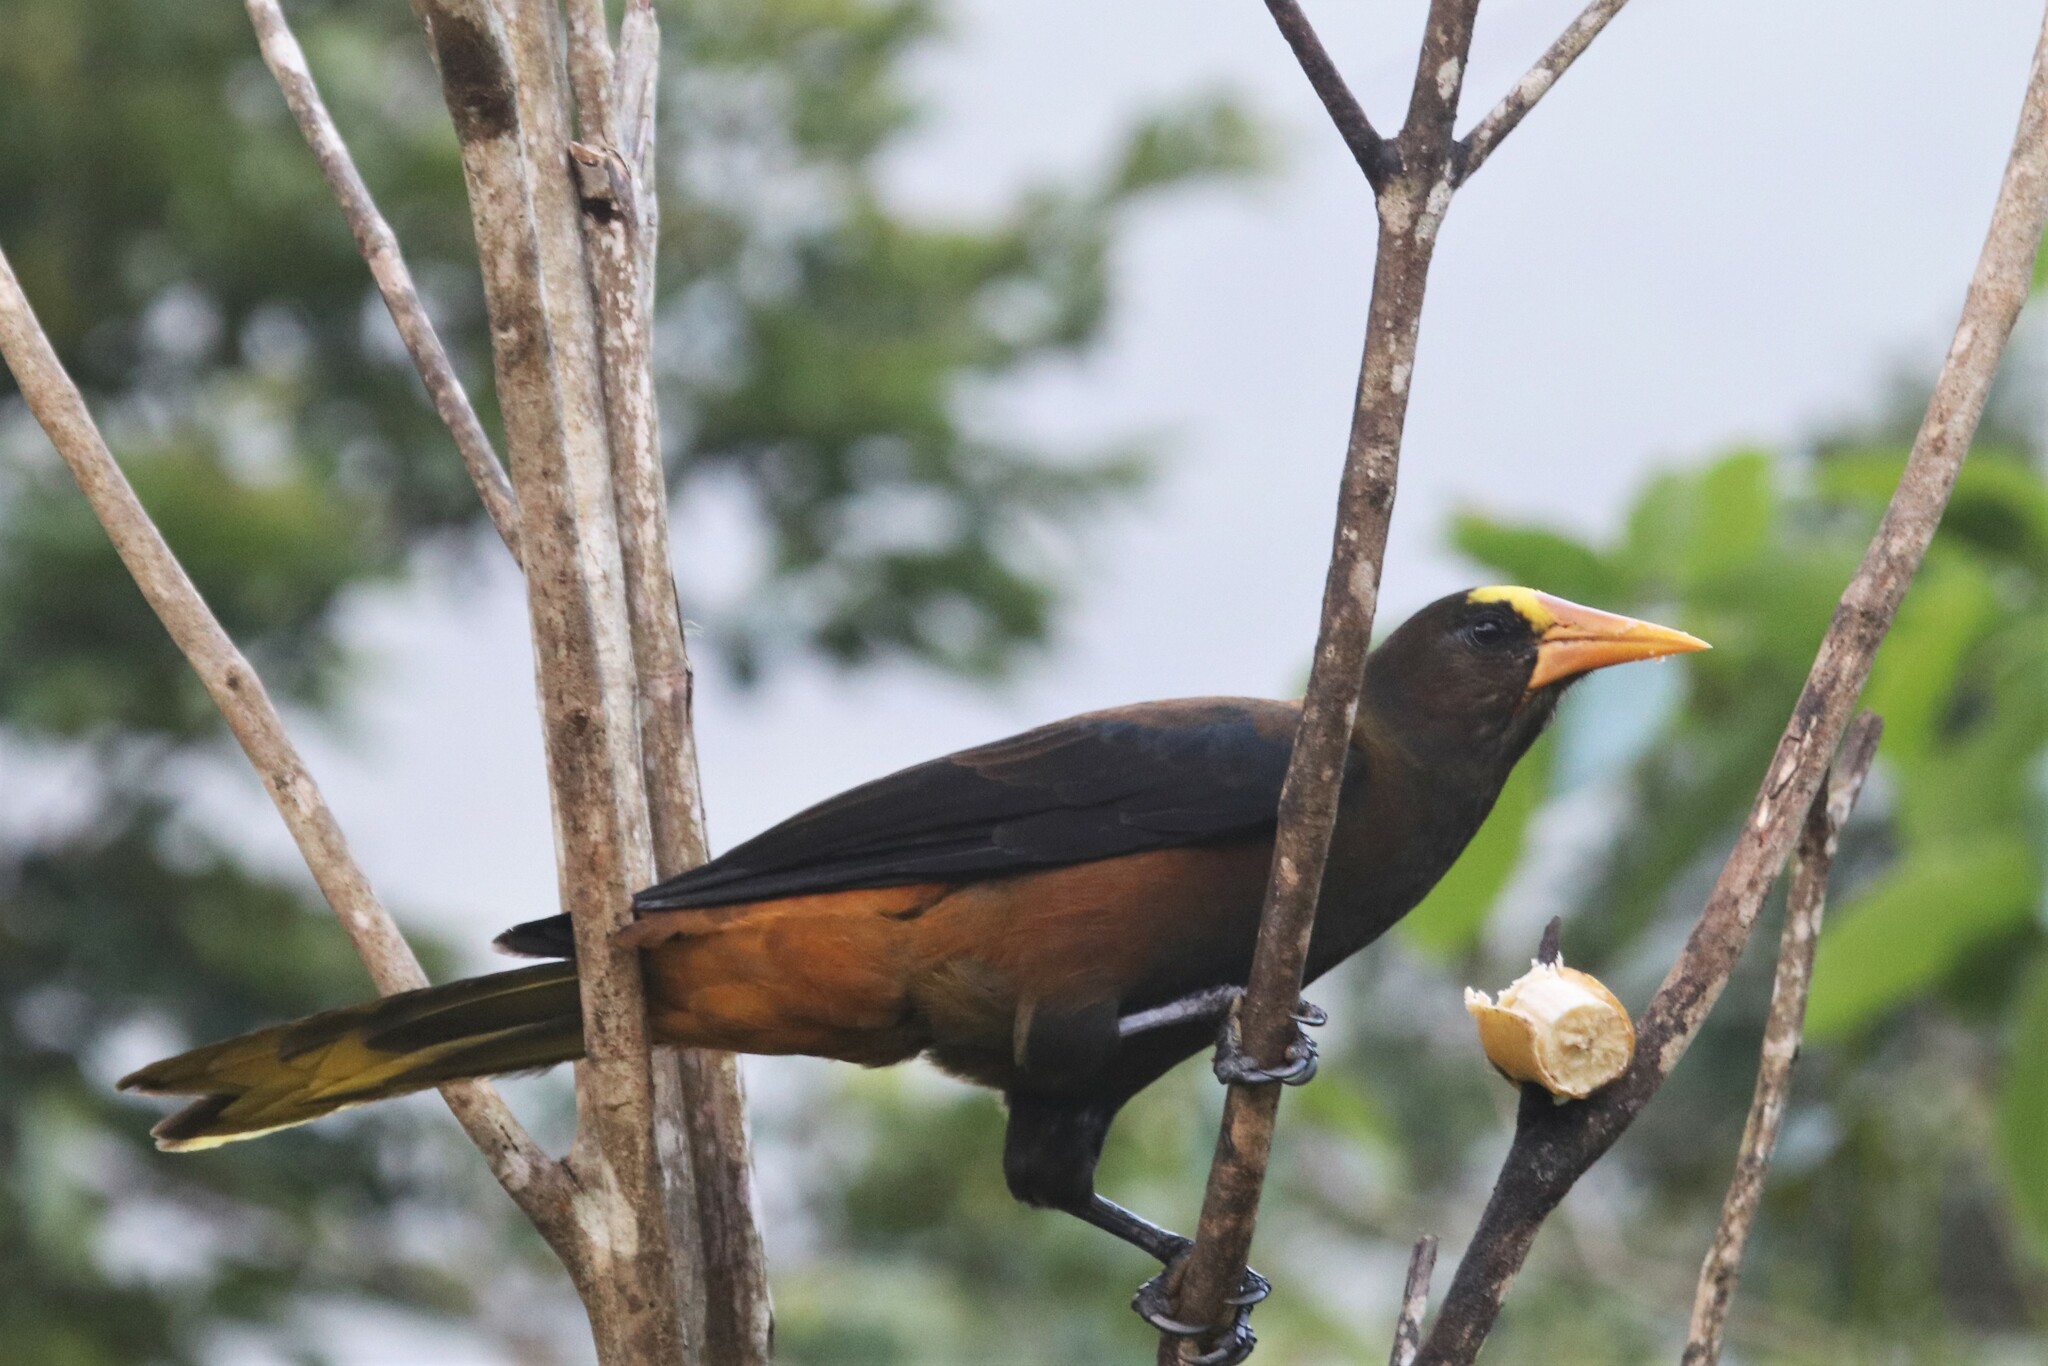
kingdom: Animalia
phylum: Chordata
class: Aves
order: Passeriformes
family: Icteridae
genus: Psarocolius
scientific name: Psarocolius angustifrons
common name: Russet-backed oropendola
